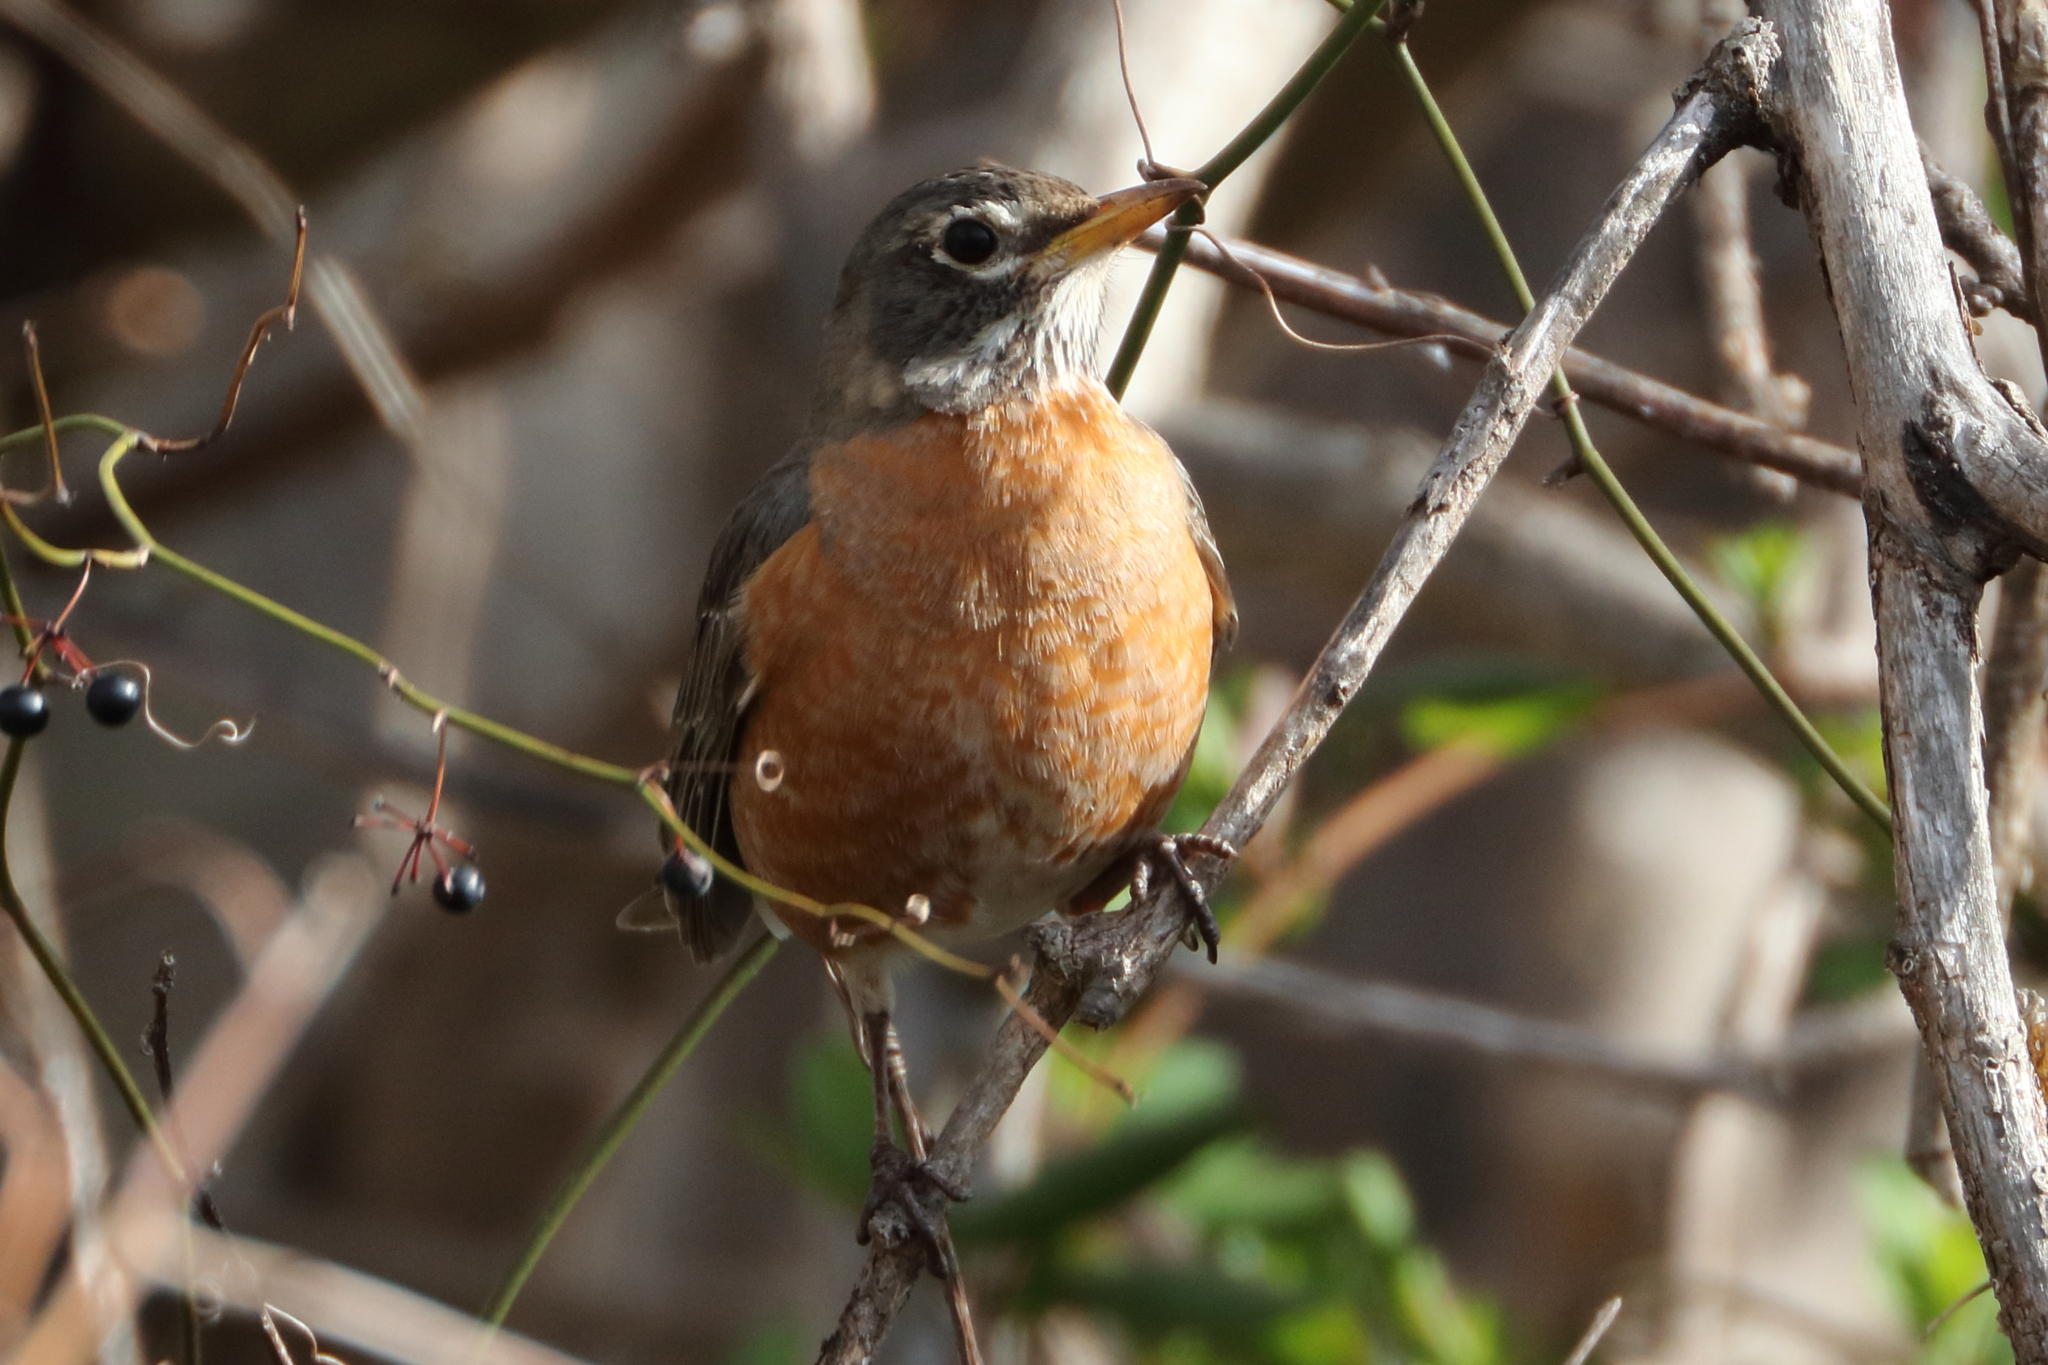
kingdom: Animalia
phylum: Chordata
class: Aves
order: Passeriformes
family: Turdidae
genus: Turdus
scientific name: Turdus migratorius
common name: American robin
